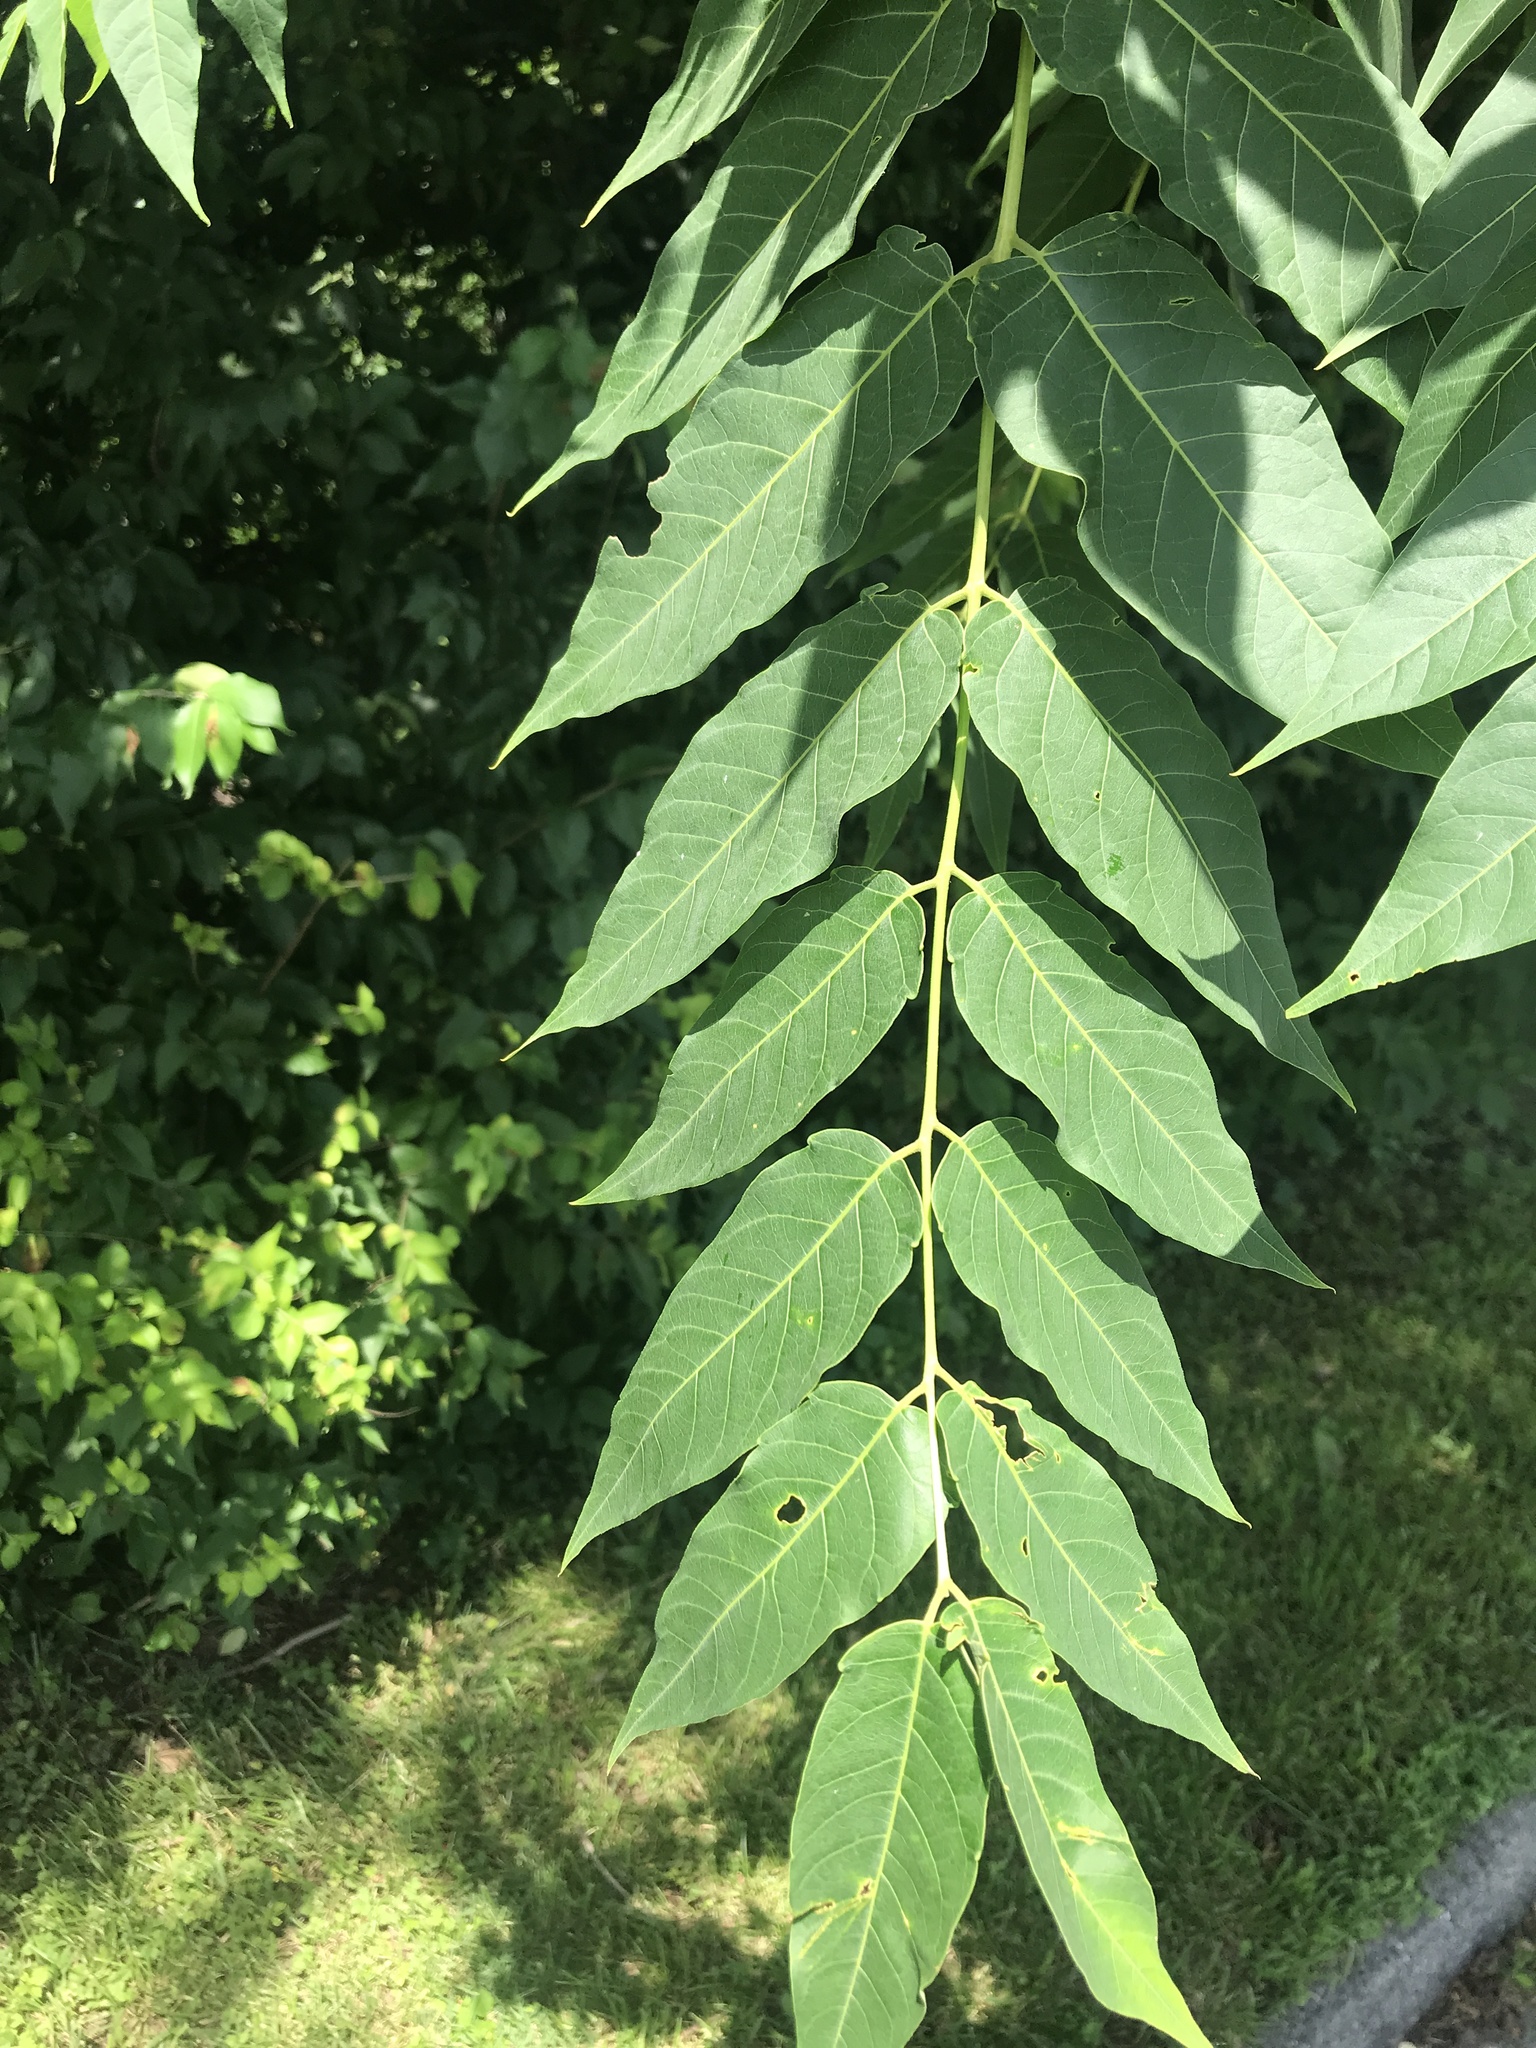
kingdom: Plantae
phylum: Tracheophyta
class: Magnoliopsida
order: Sapindales
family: Simaroubaceae
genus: Ailanthus
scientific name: Ailanthus altissima
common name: Tree-of-heaven
